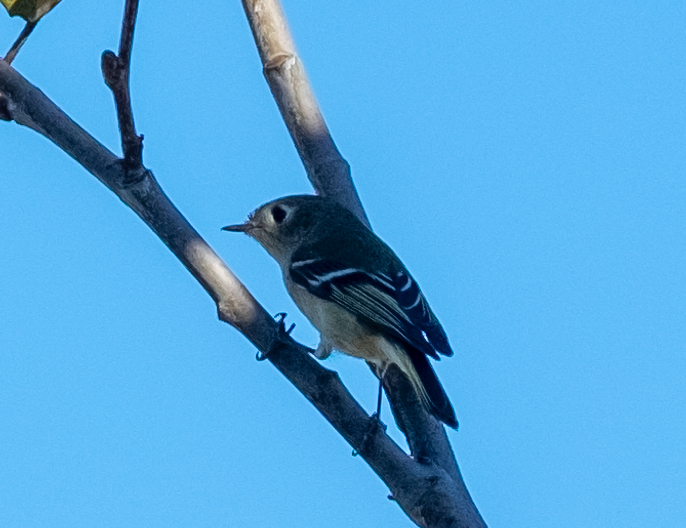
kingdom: Animalia
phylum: Chordata
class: Aves
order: Passeriformes
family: Regulidae
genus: Regulus
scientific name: Regulus calendula
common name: Ruby-crowned kinglet
